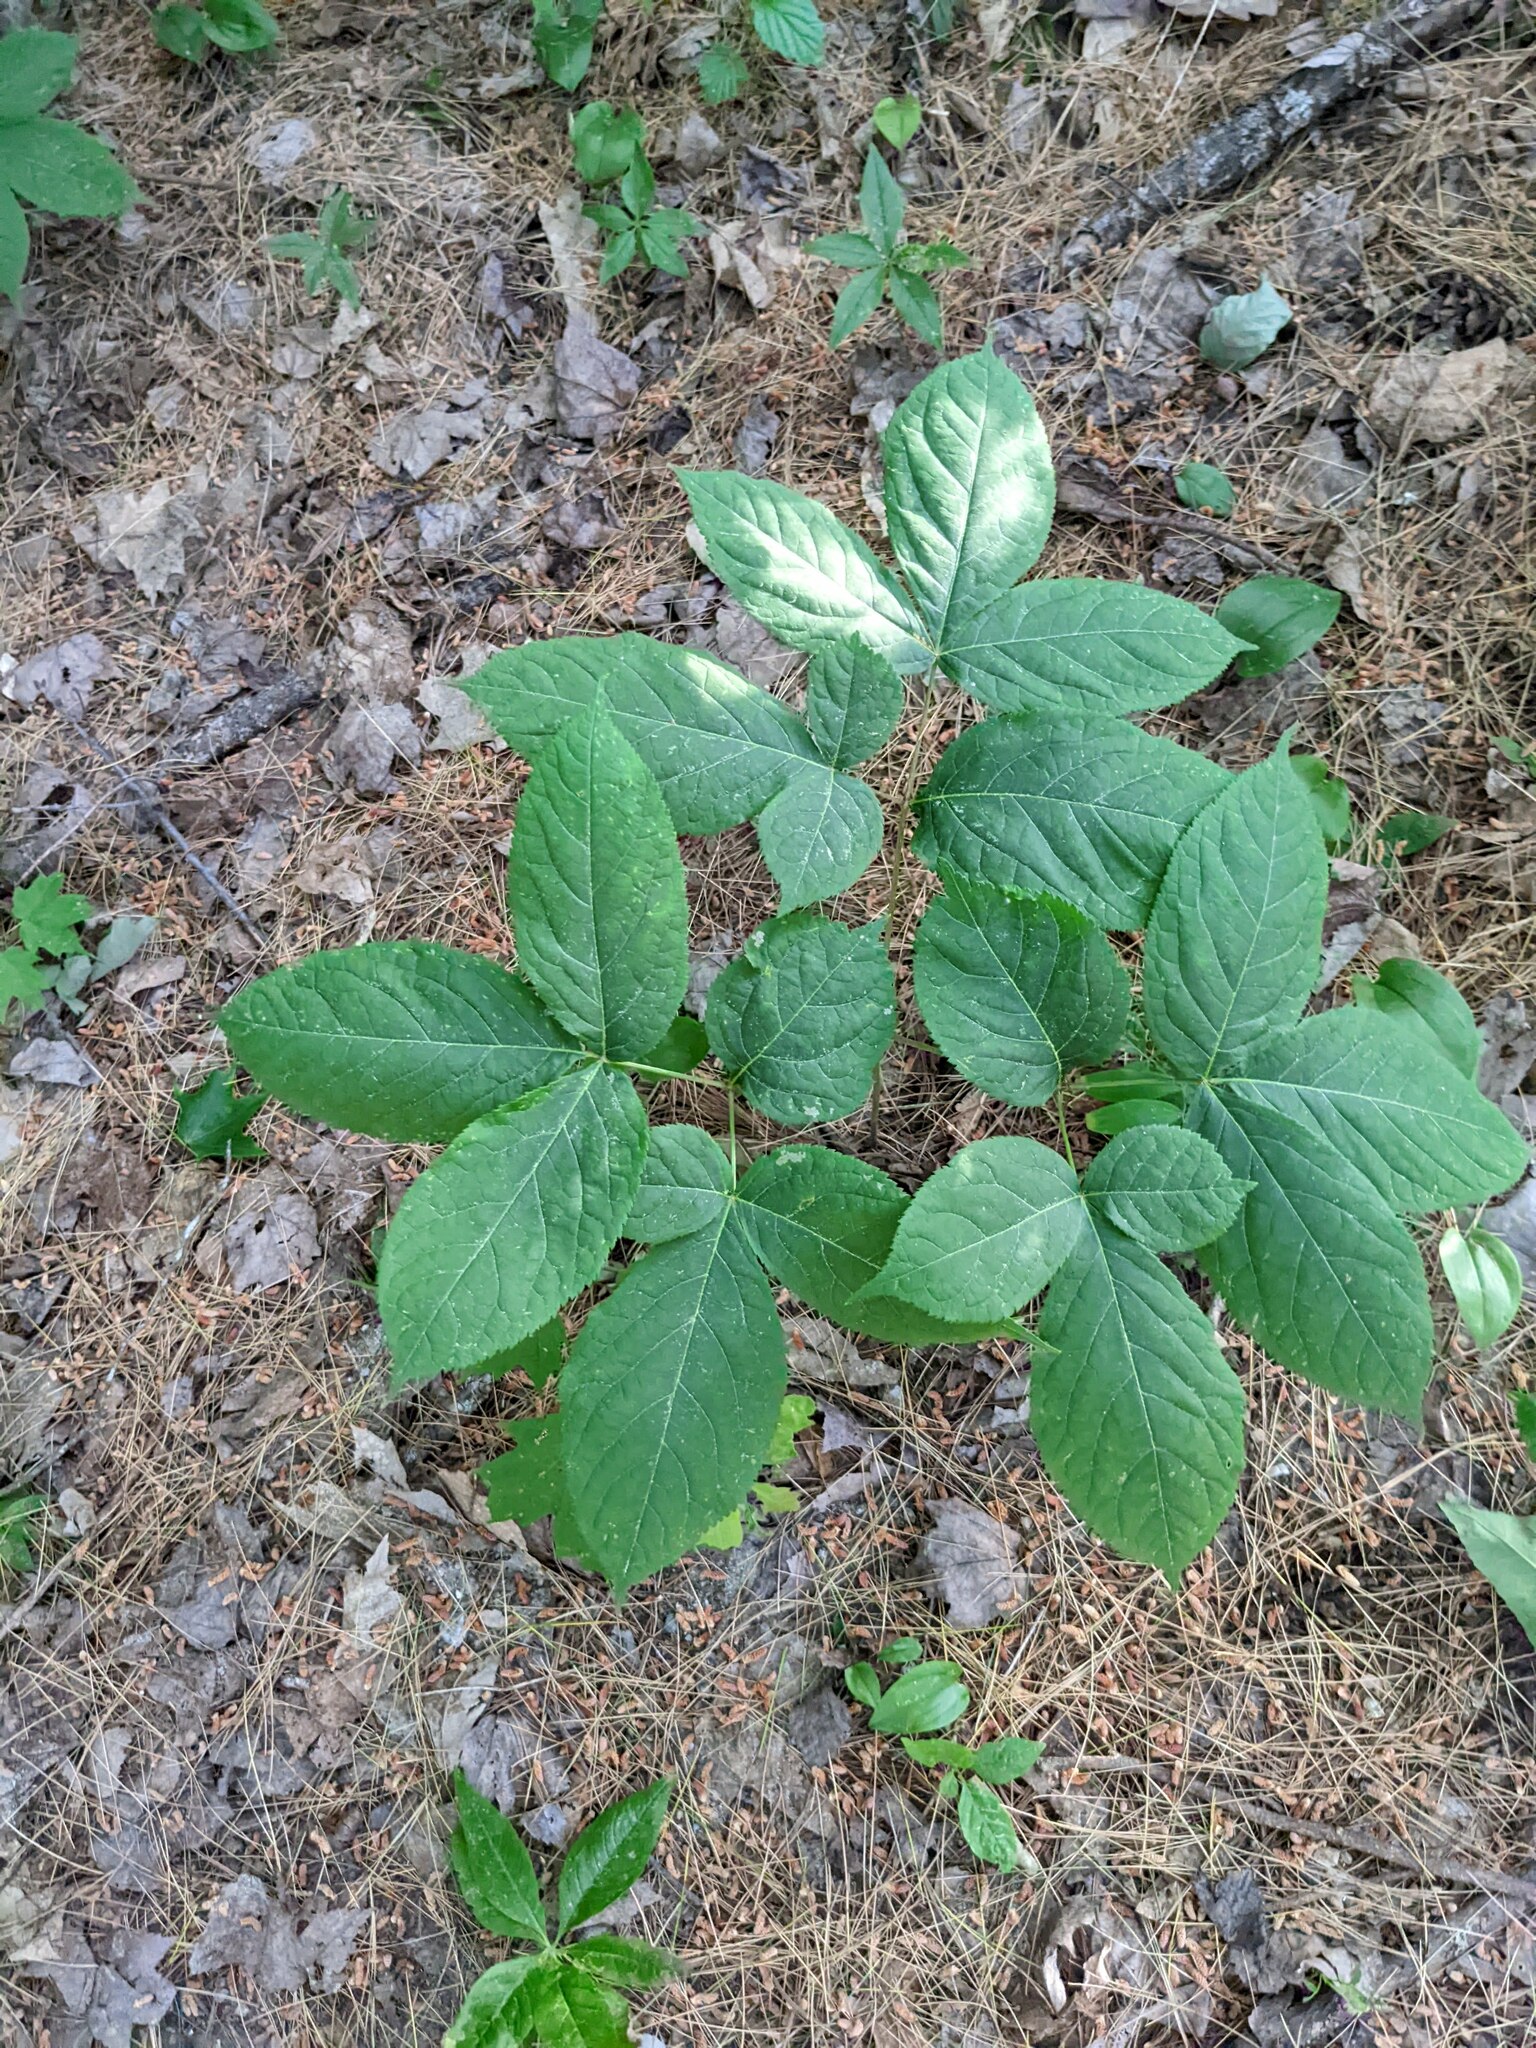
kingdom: Plantae
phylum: Tracheophyta
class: Magnoliopsida
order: Apiales
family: Araliaceae
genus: Aralia
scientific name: Aralia nudicaulis
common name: Wild sarsaparilla
